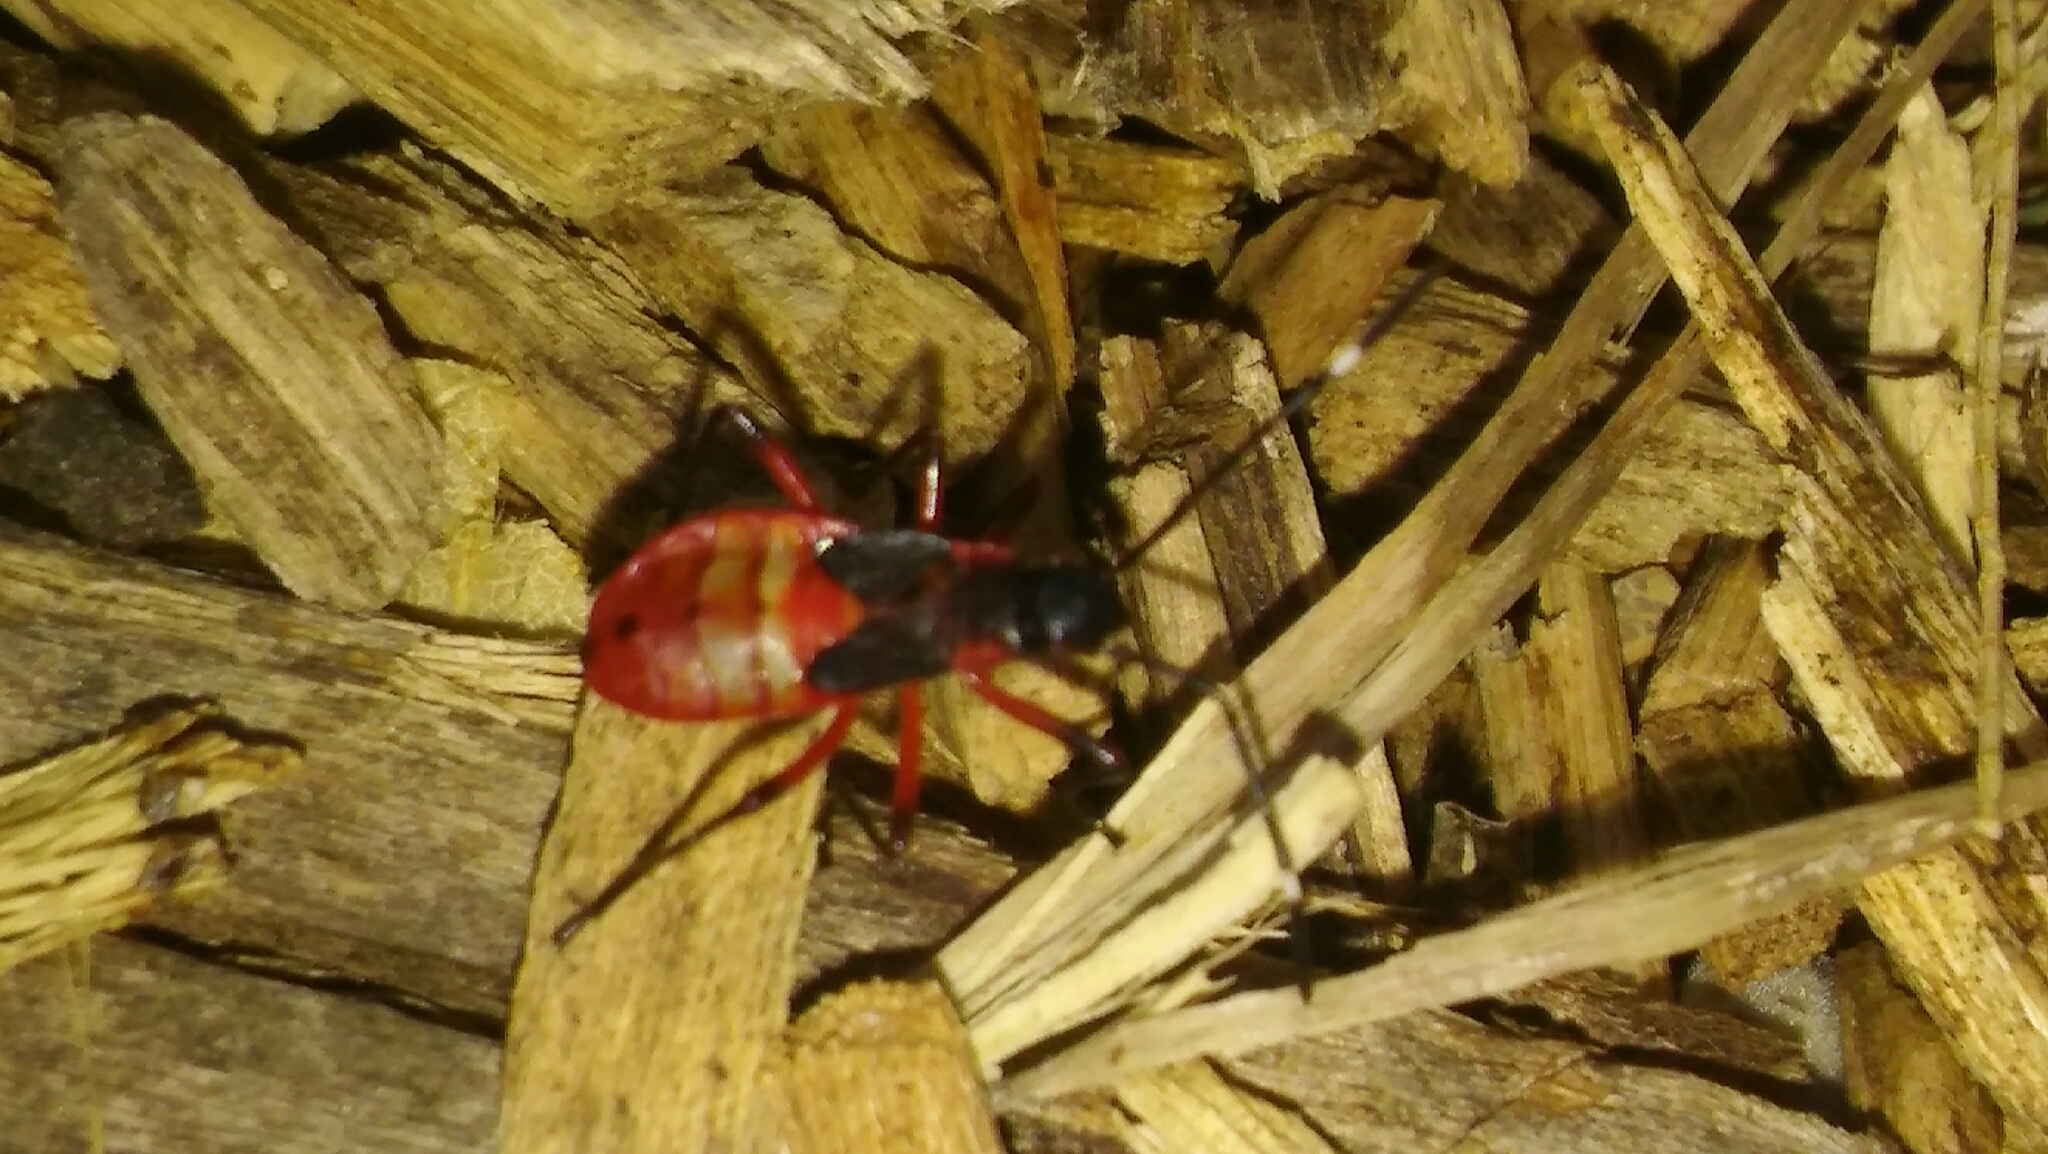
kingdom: Animalia
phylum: Arthropoda
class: Insecta
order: Hemiptera
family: Pyrrhocoridae
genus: Dysdercus
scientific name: Dysdercus albofasciatus
